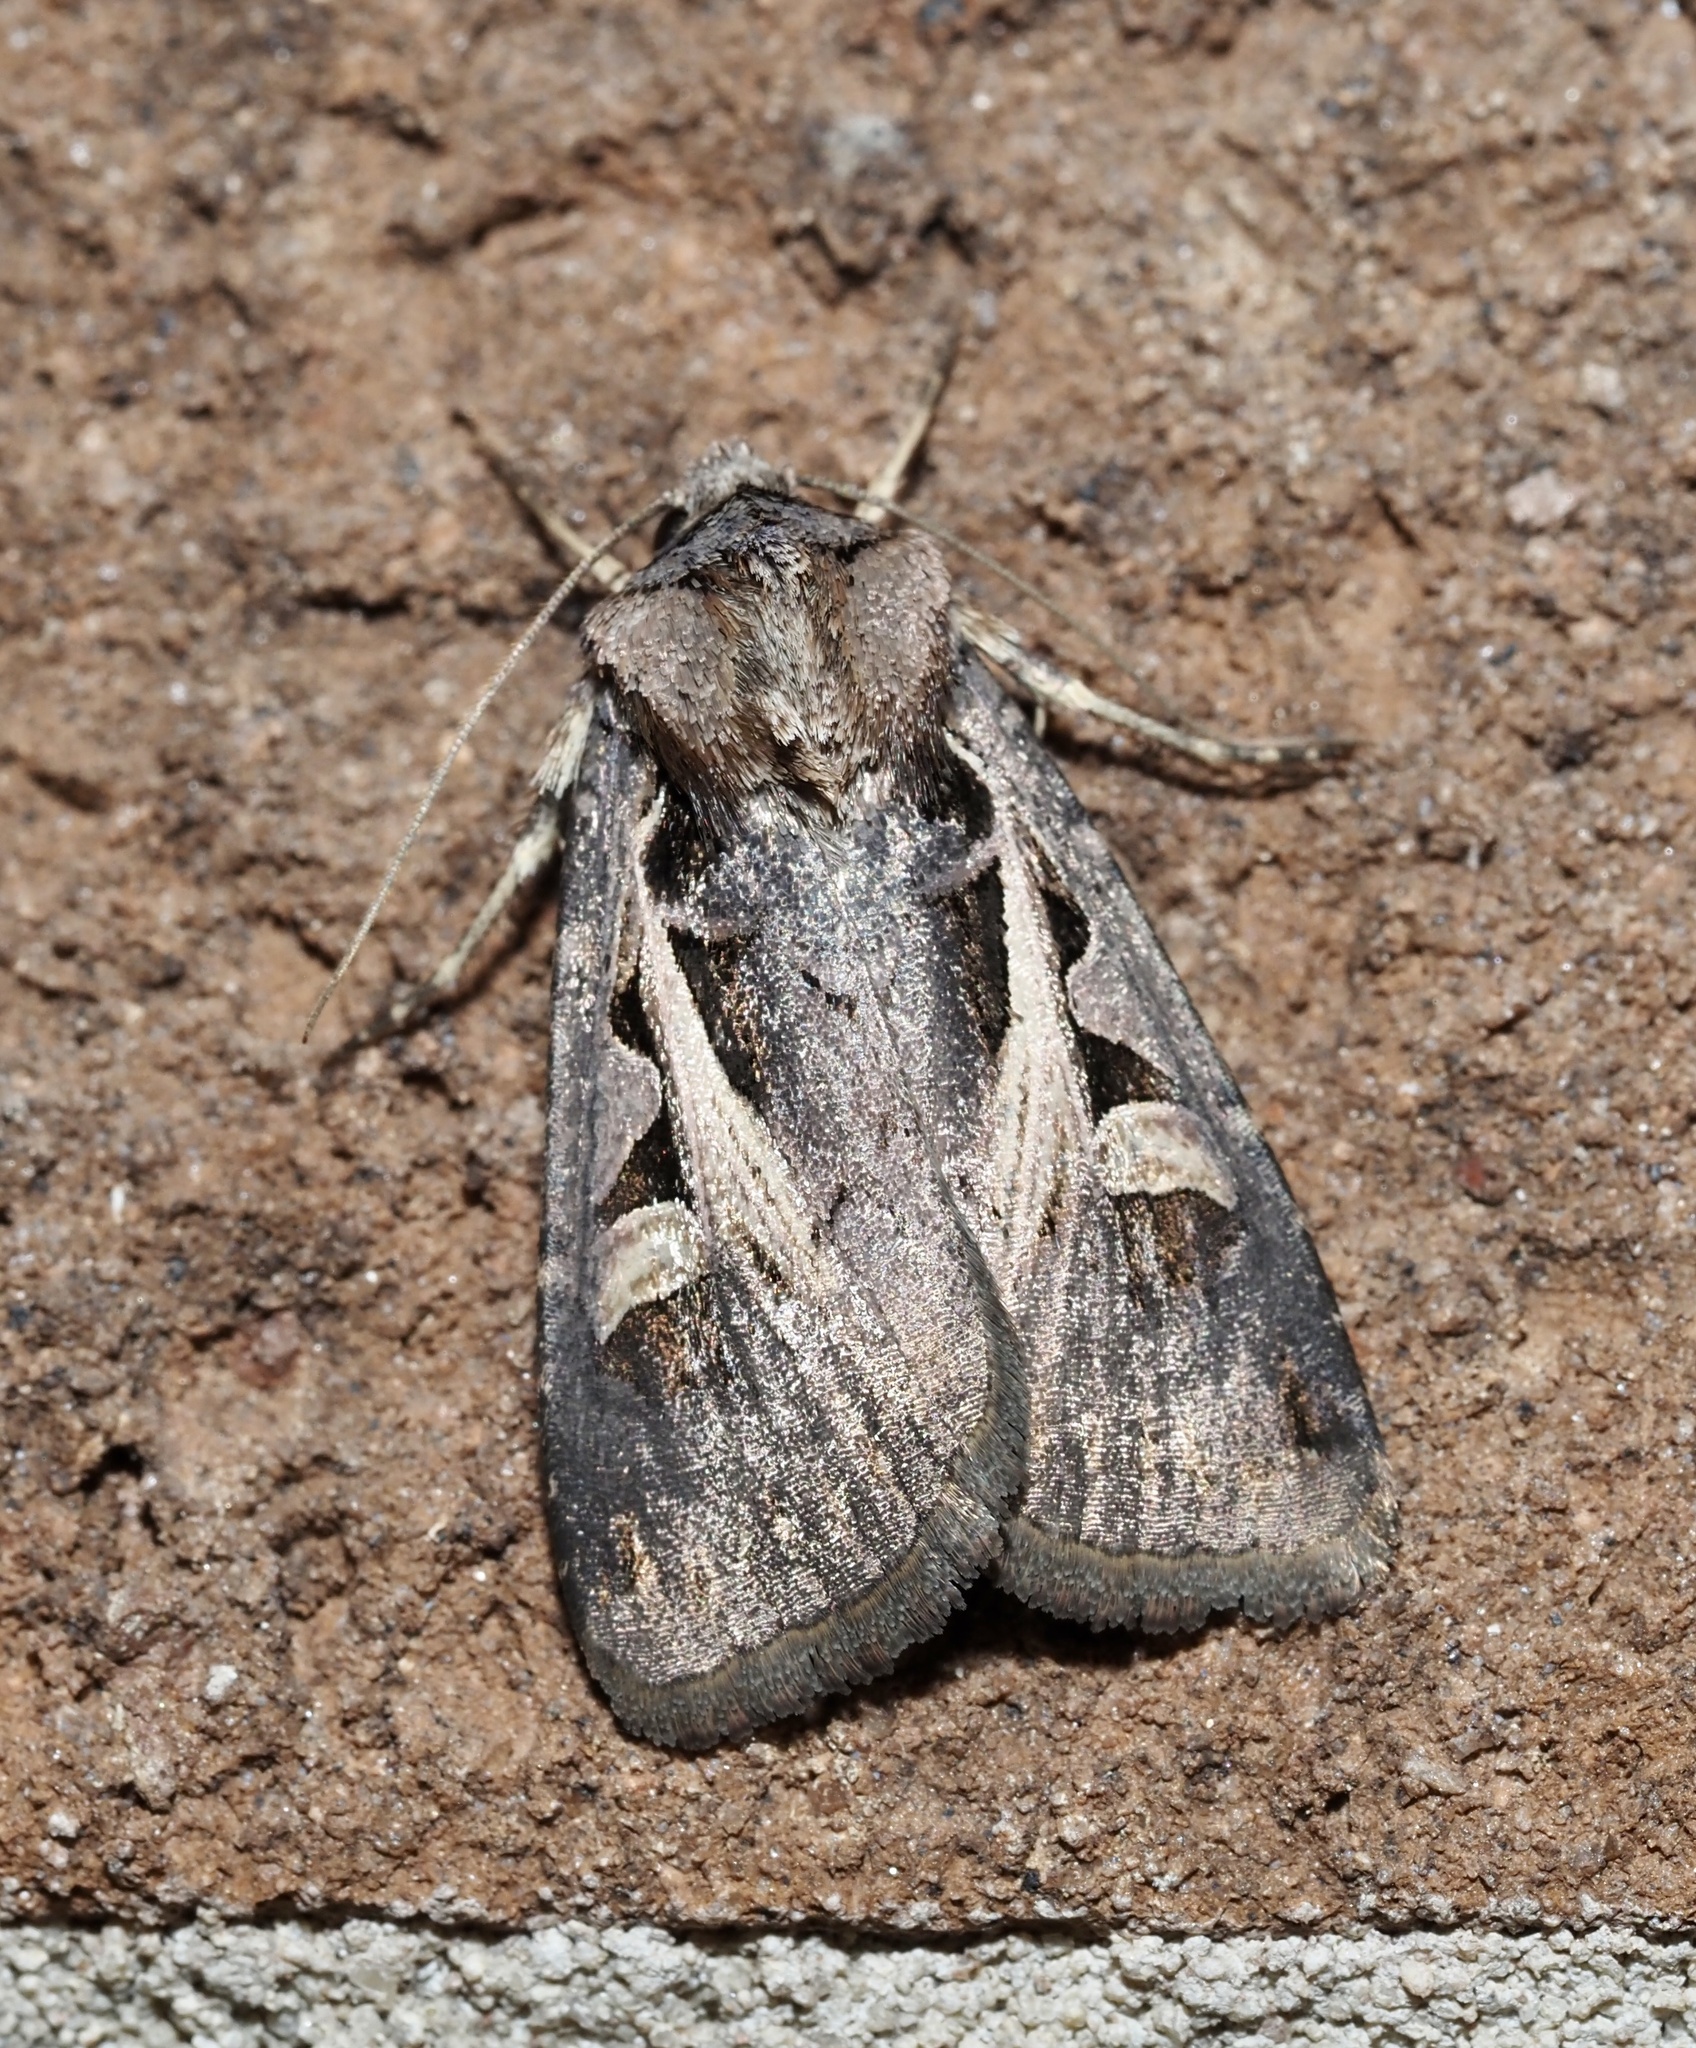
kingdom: Animalia
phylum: Arthropoda
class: Insecta
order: Lepidoptera
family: Noctuidae
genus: Feltia
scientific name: Feltia herilis
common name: Master's dart
